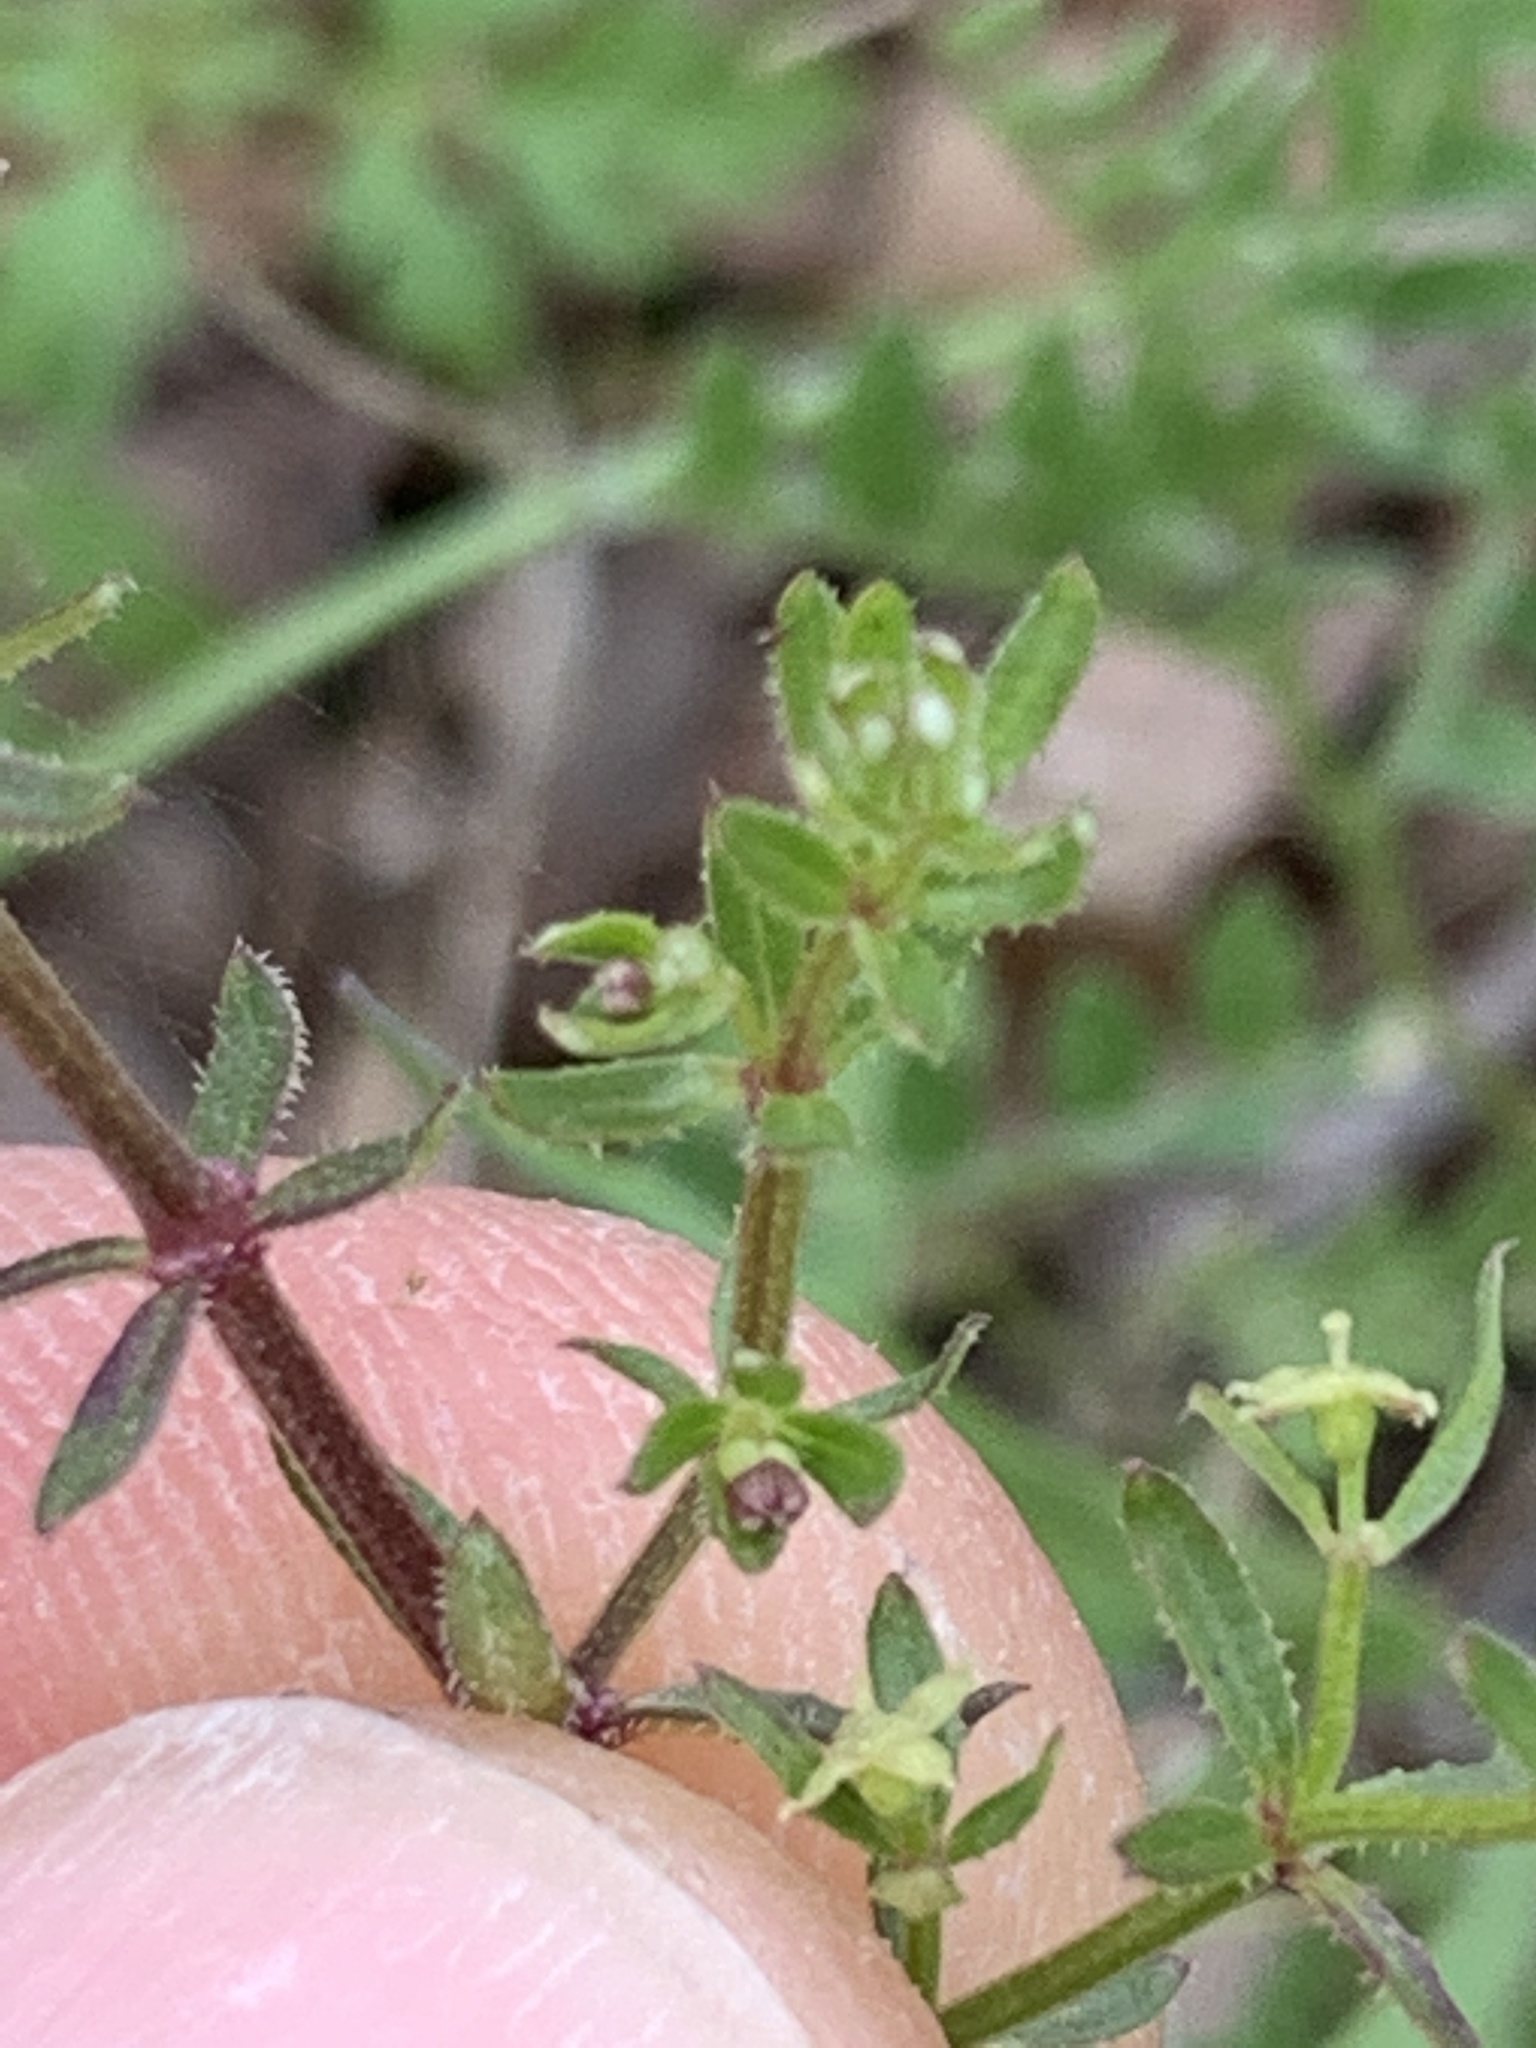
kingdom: Plantae
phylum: Tracheophyta
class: Magnoliopsida
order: Gentianales
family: Rubiaceae
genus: Galium
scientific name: Galium porrigens
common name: Climbing bedstraw
